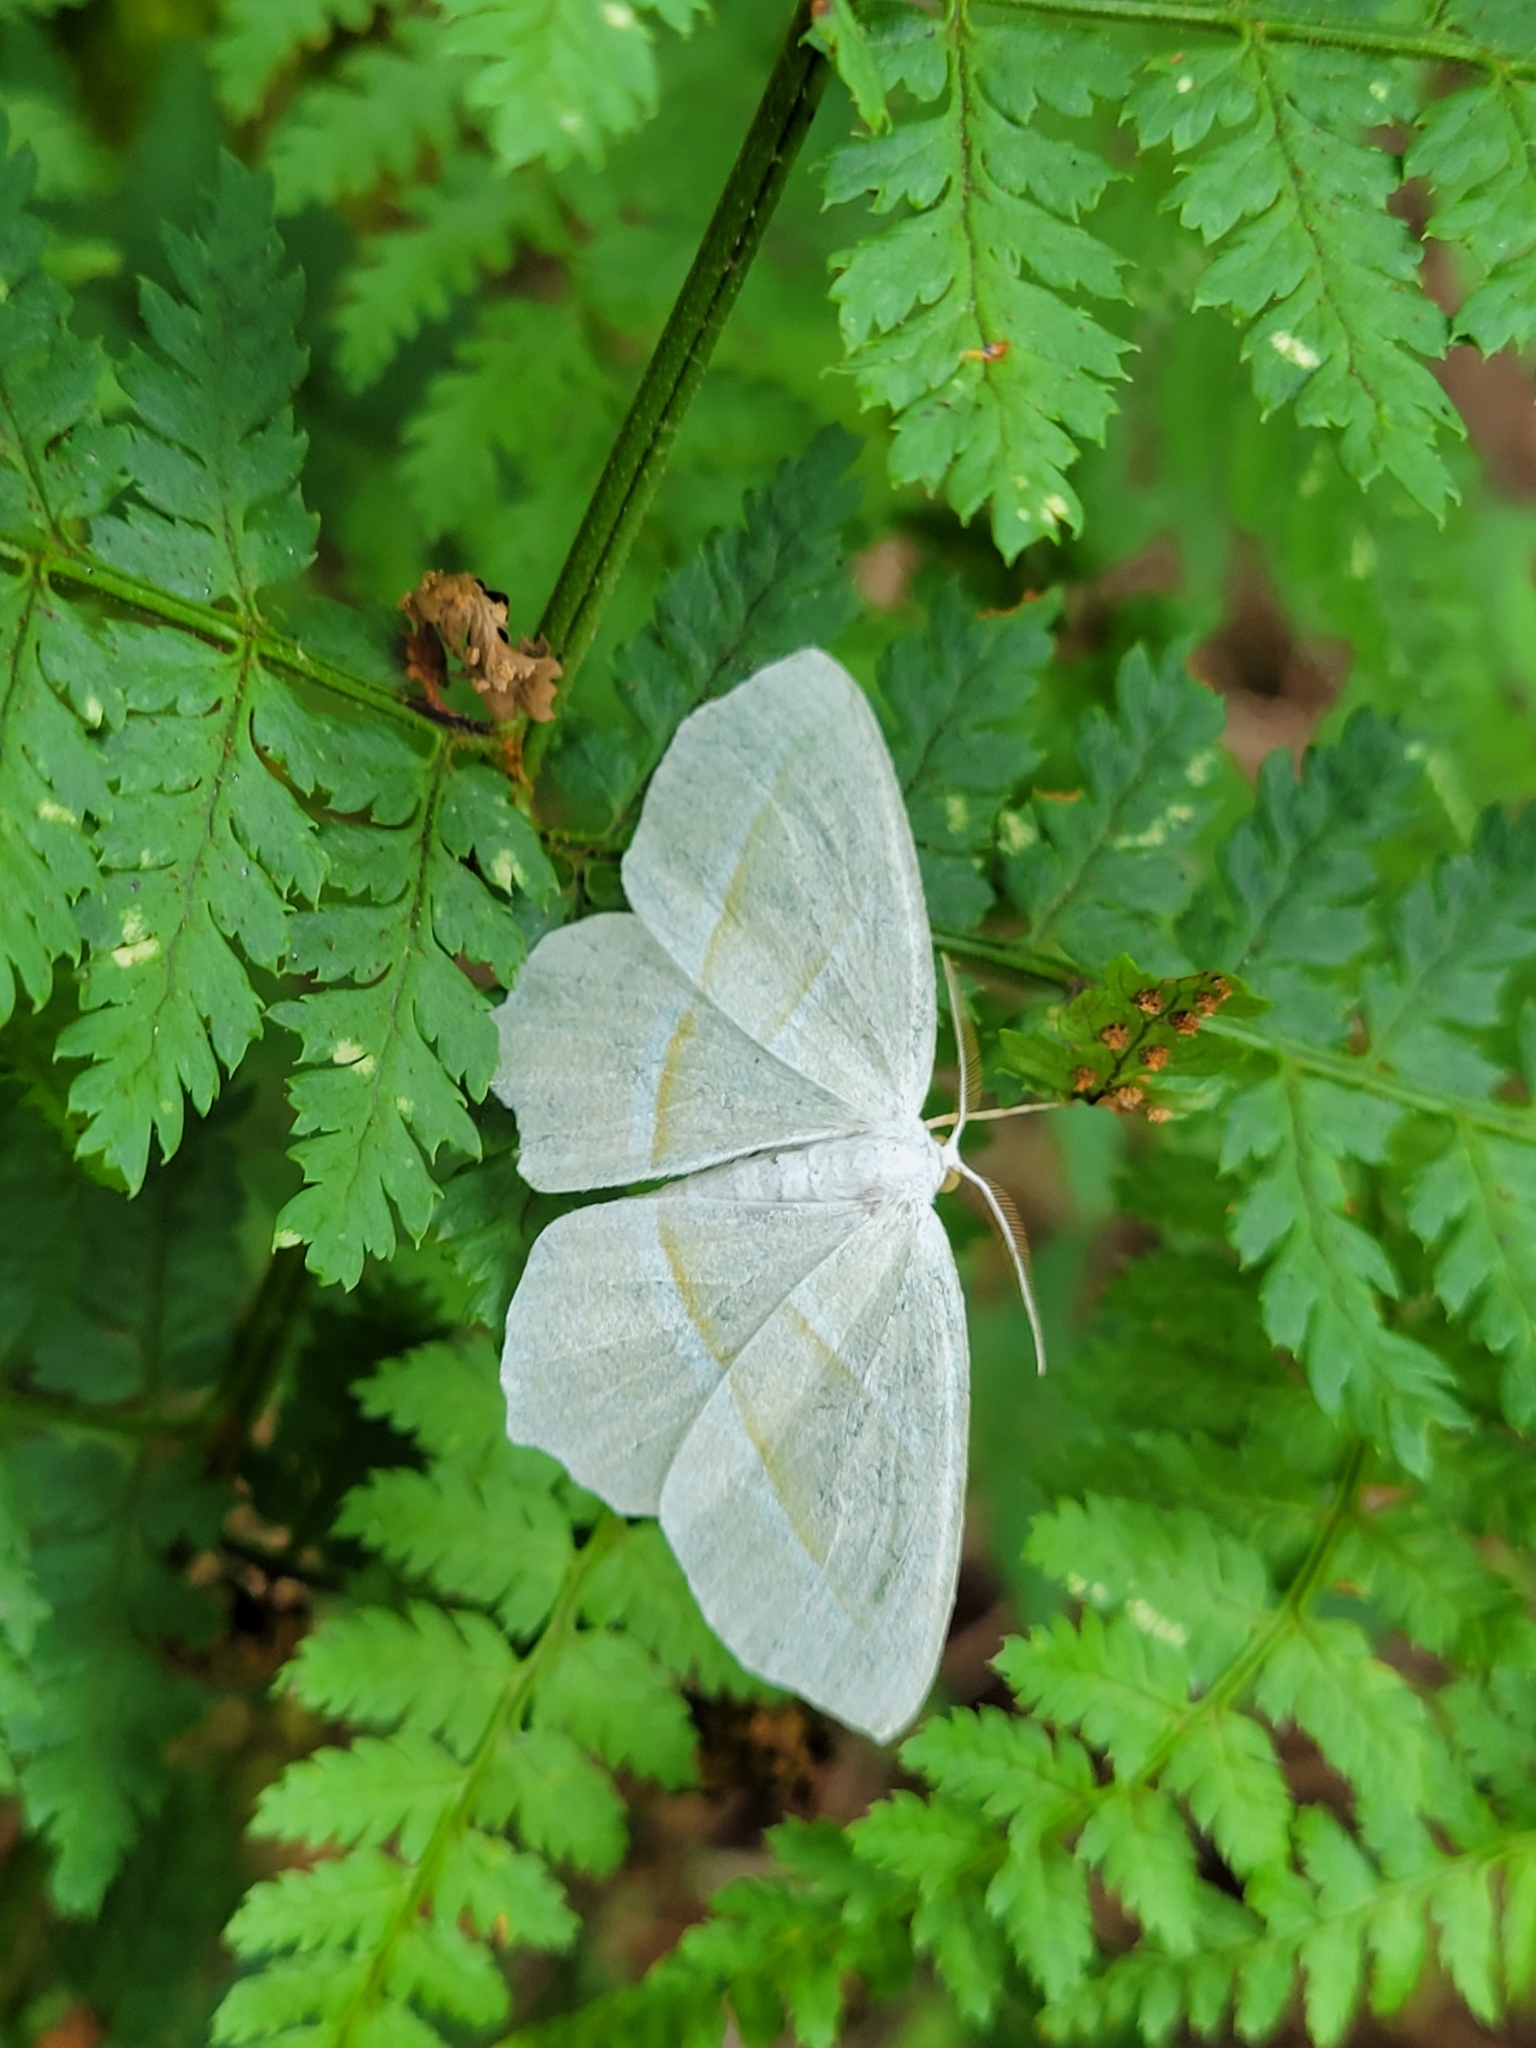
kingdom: Animalia
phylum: Arthropoda
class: Insecta
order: Lepidoptera
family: Geometridae
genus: Campaea
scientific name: Campaea perlata
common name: Fringed looper
